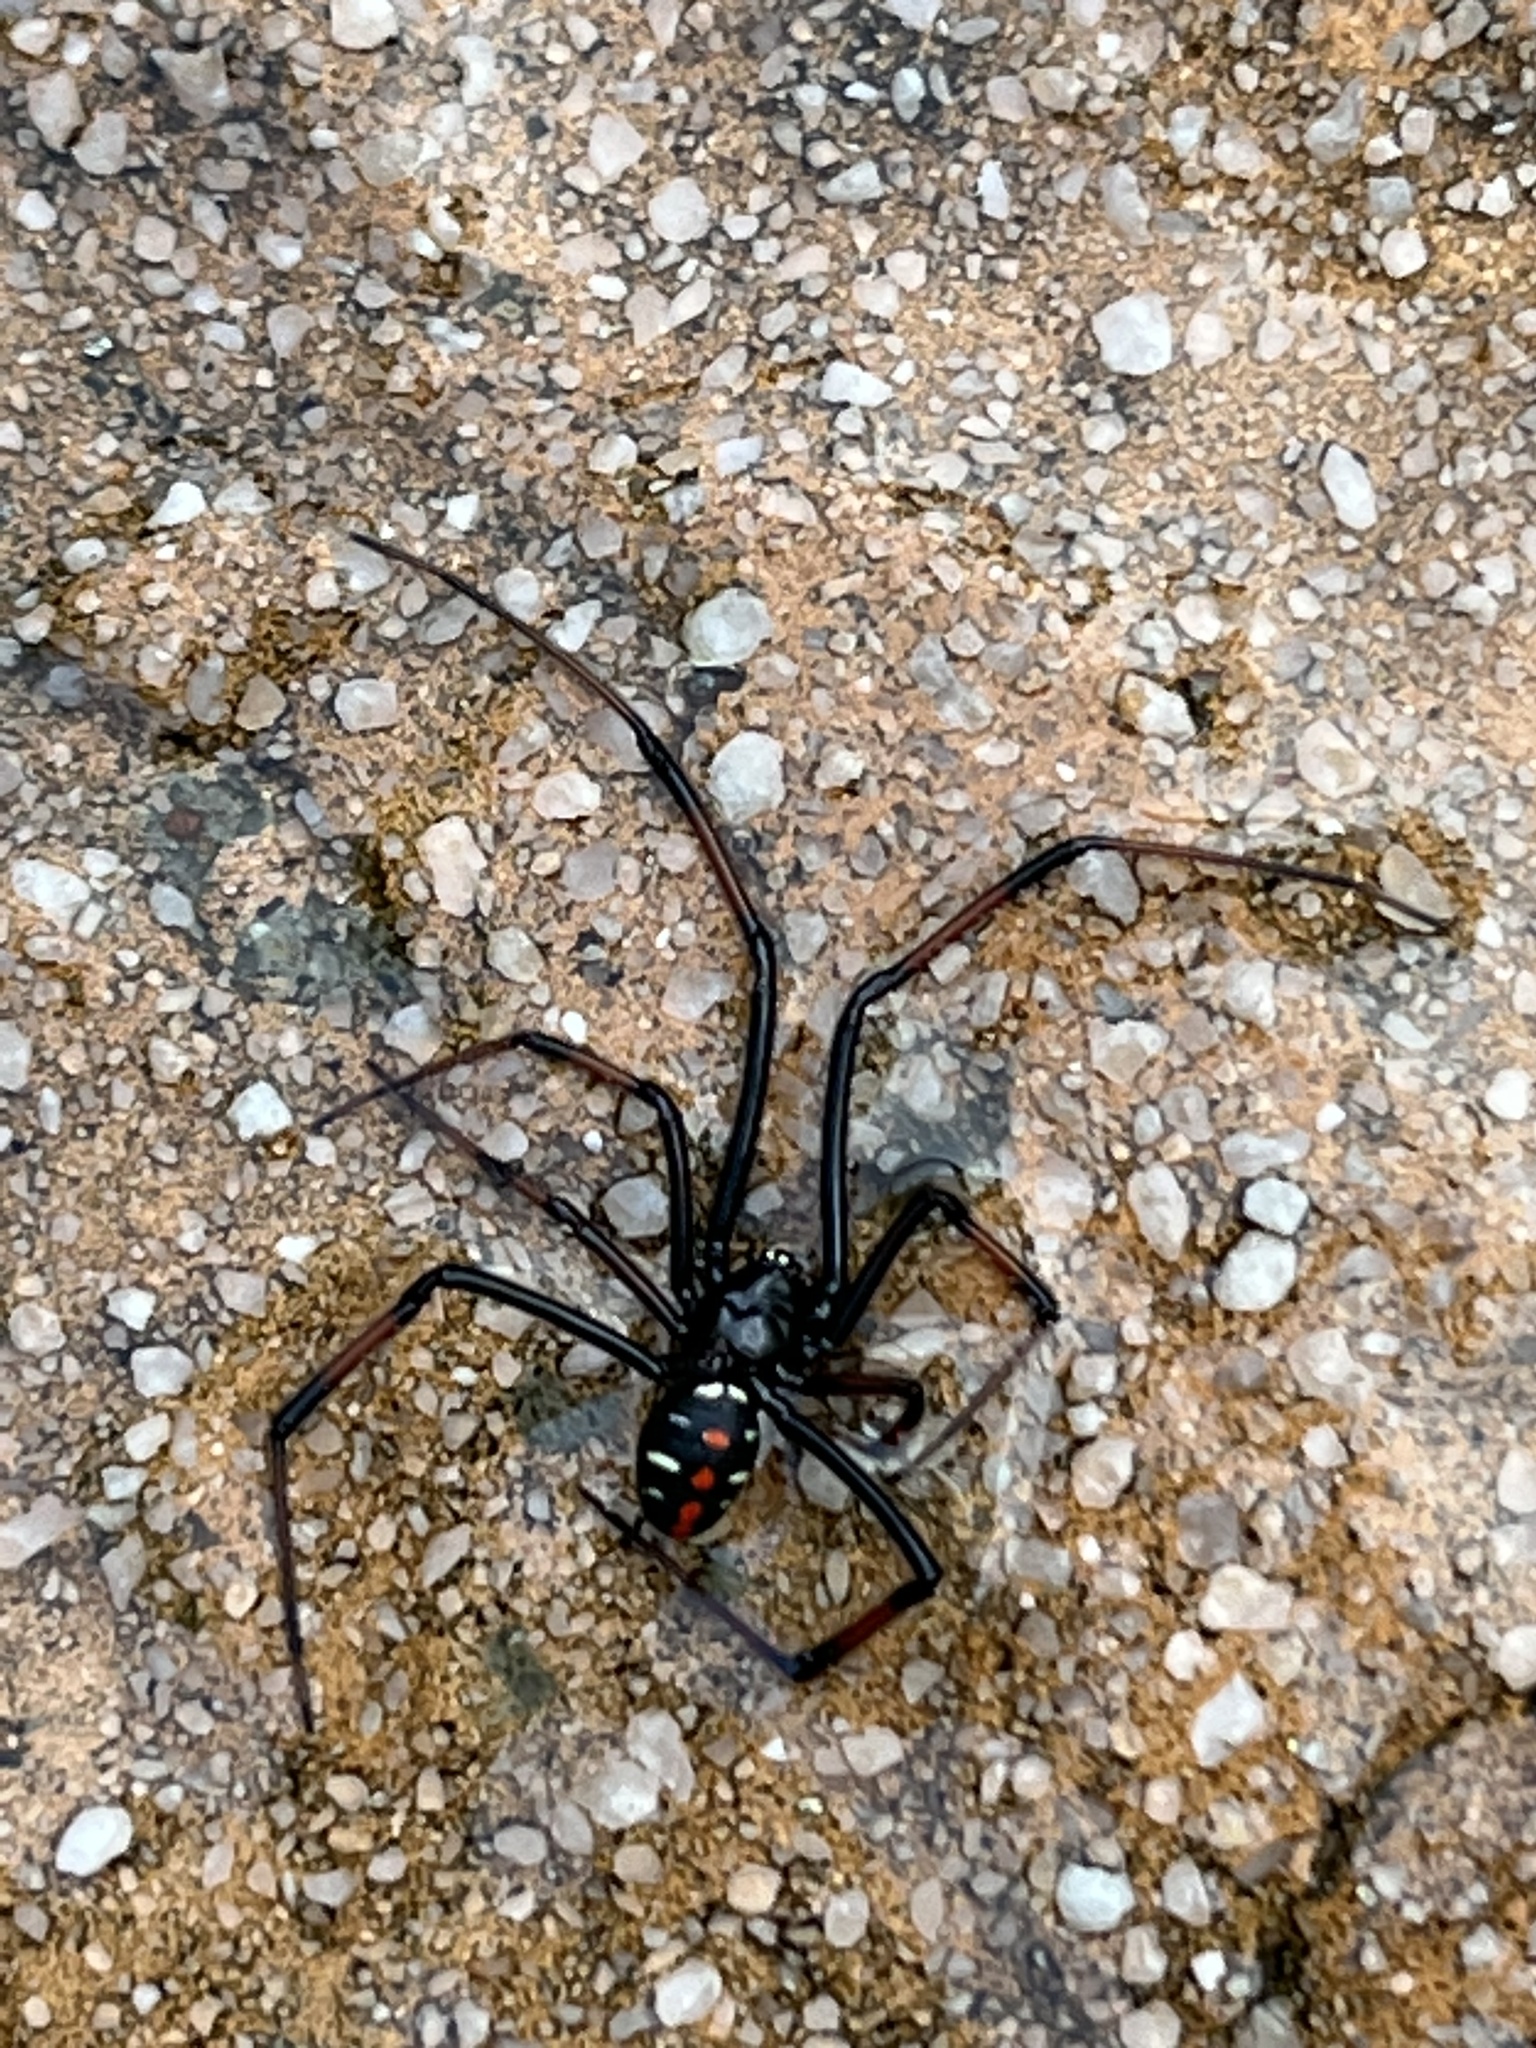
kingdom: Animalia
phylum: Arthropoda
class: Arachnida
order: Araneae
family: Theridiidae
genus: Latrodectus
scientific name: Latrodectus variolus
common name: Northern black widow
